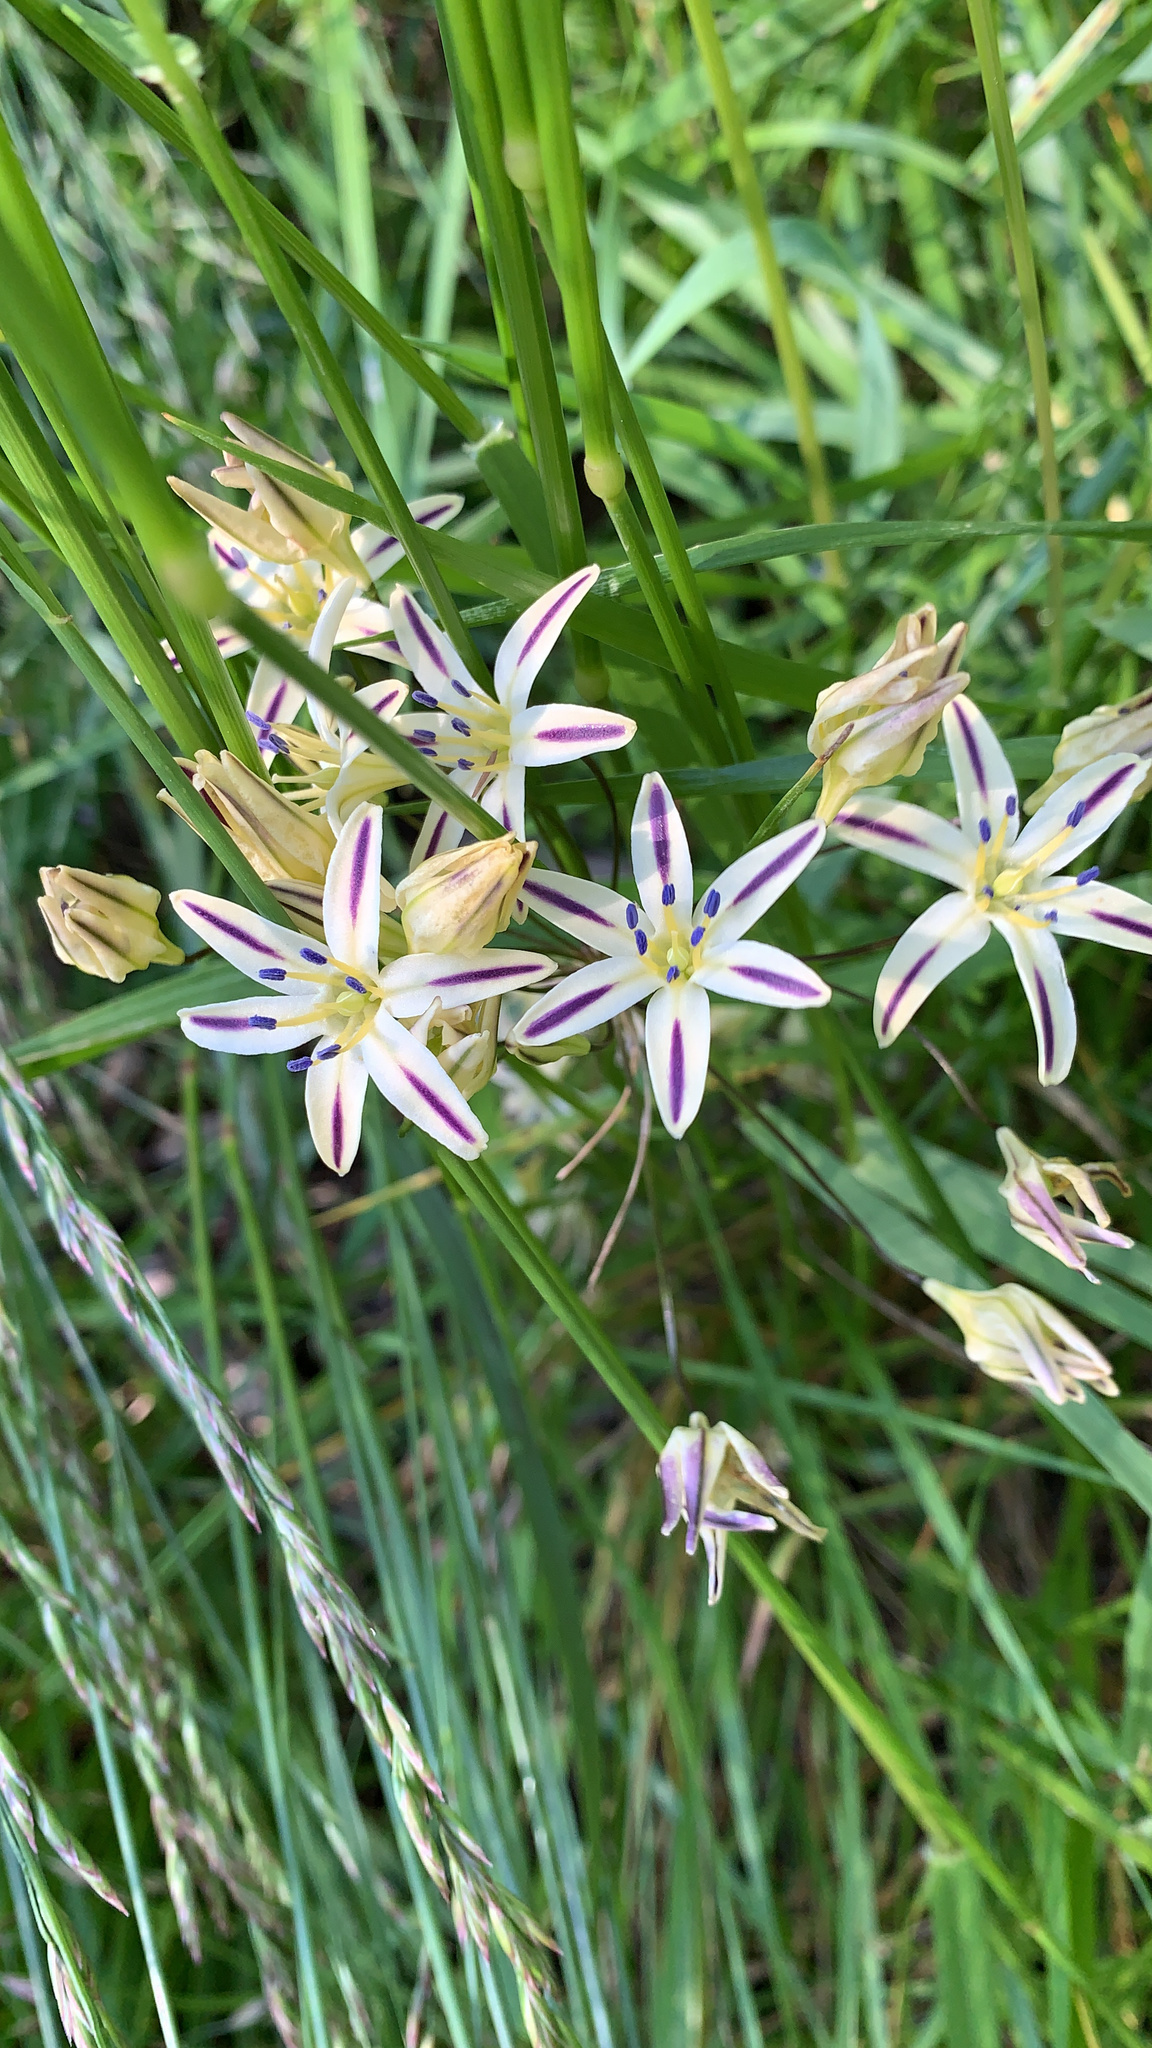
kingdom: Plantae
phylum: Tracheophyta
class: Liliopsida
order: Asparagales
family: Asparagaceae
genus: Triteleia
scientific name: Triteleia hendersonii
